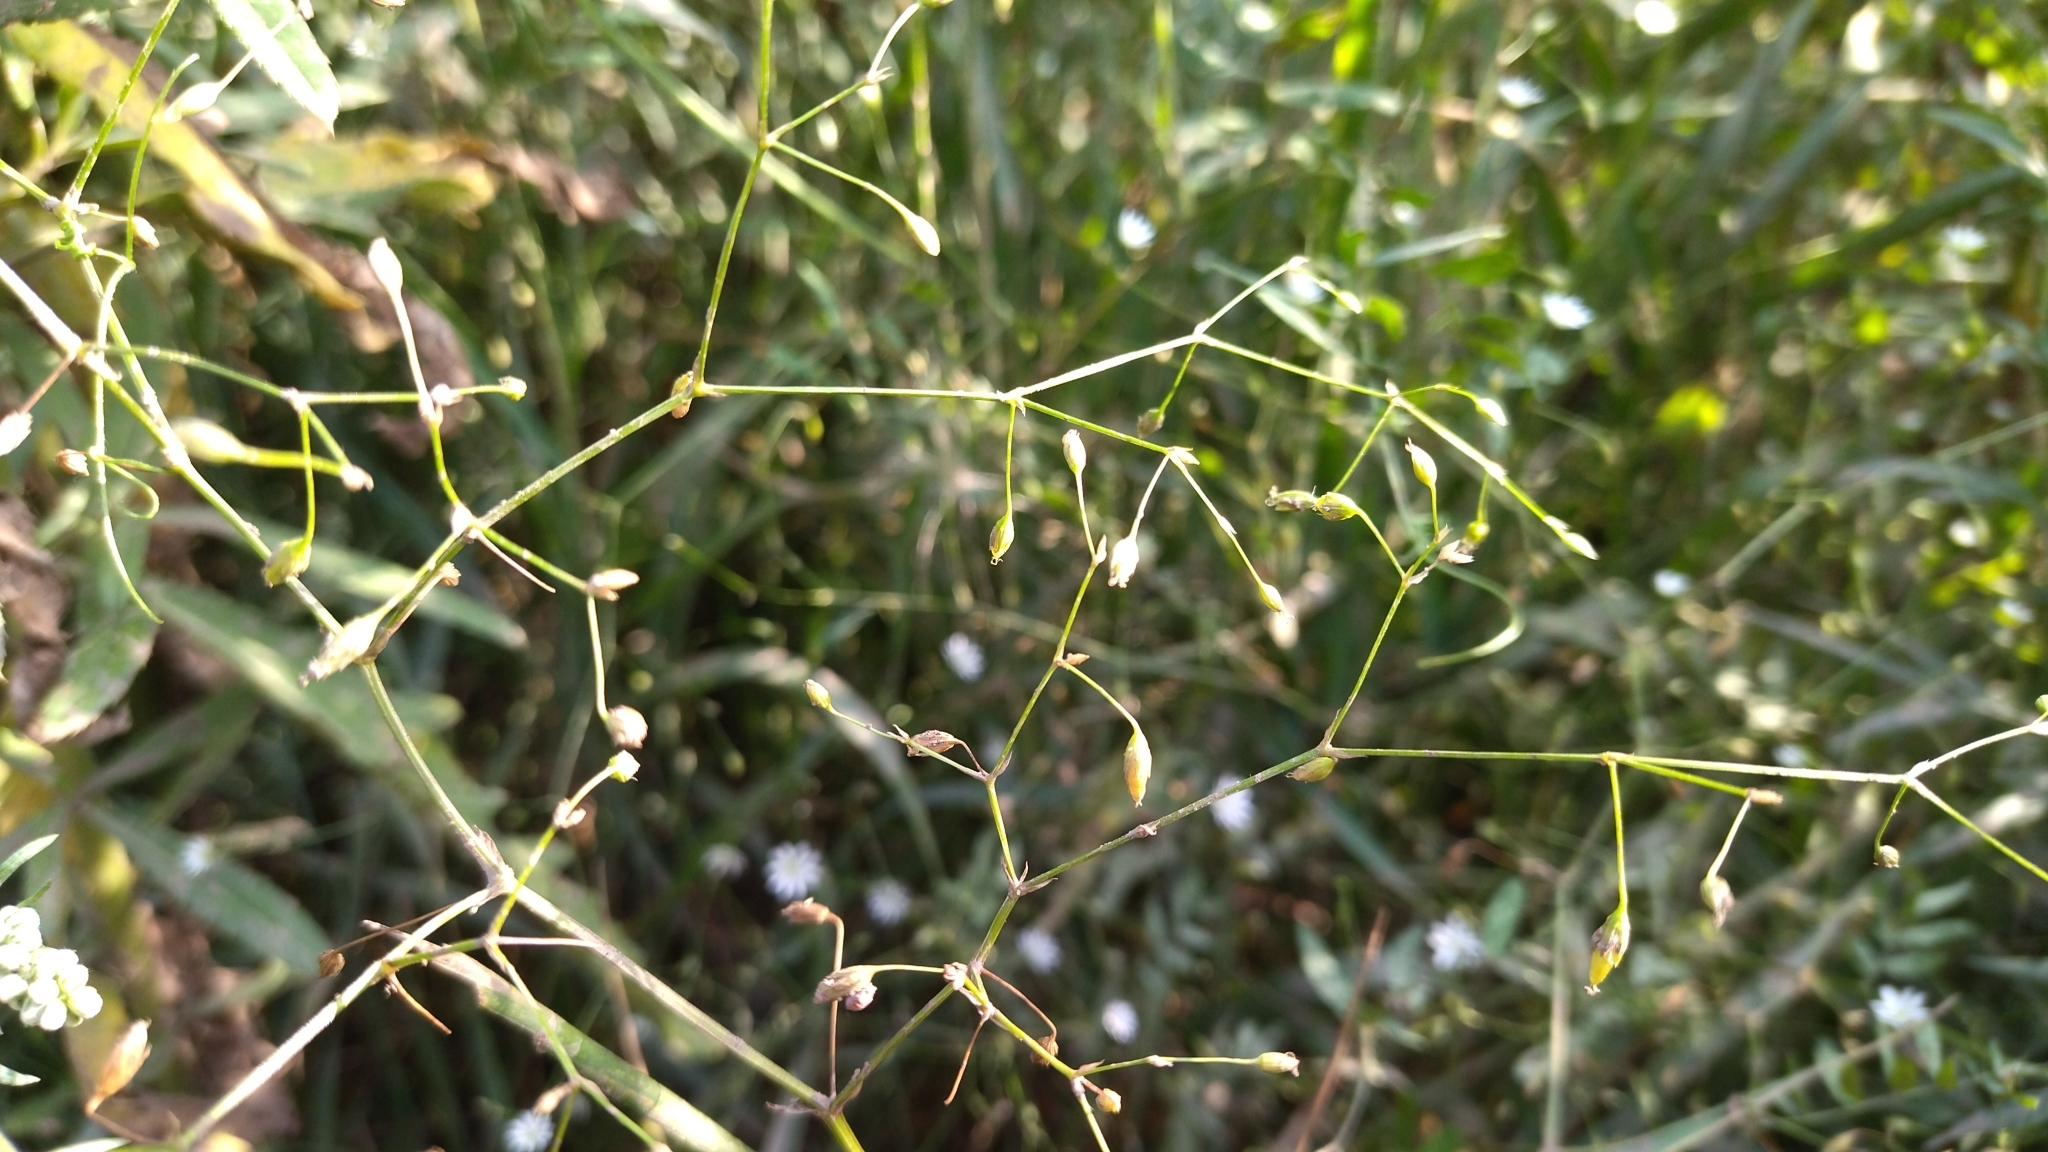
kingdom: Plantae
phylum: Tracheophyta
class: Magnoliopsida
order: Caryophyllales
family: Caryophyllaceae
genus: Stellaria
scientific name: Stellaria graminea
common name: Grass-like starwort
